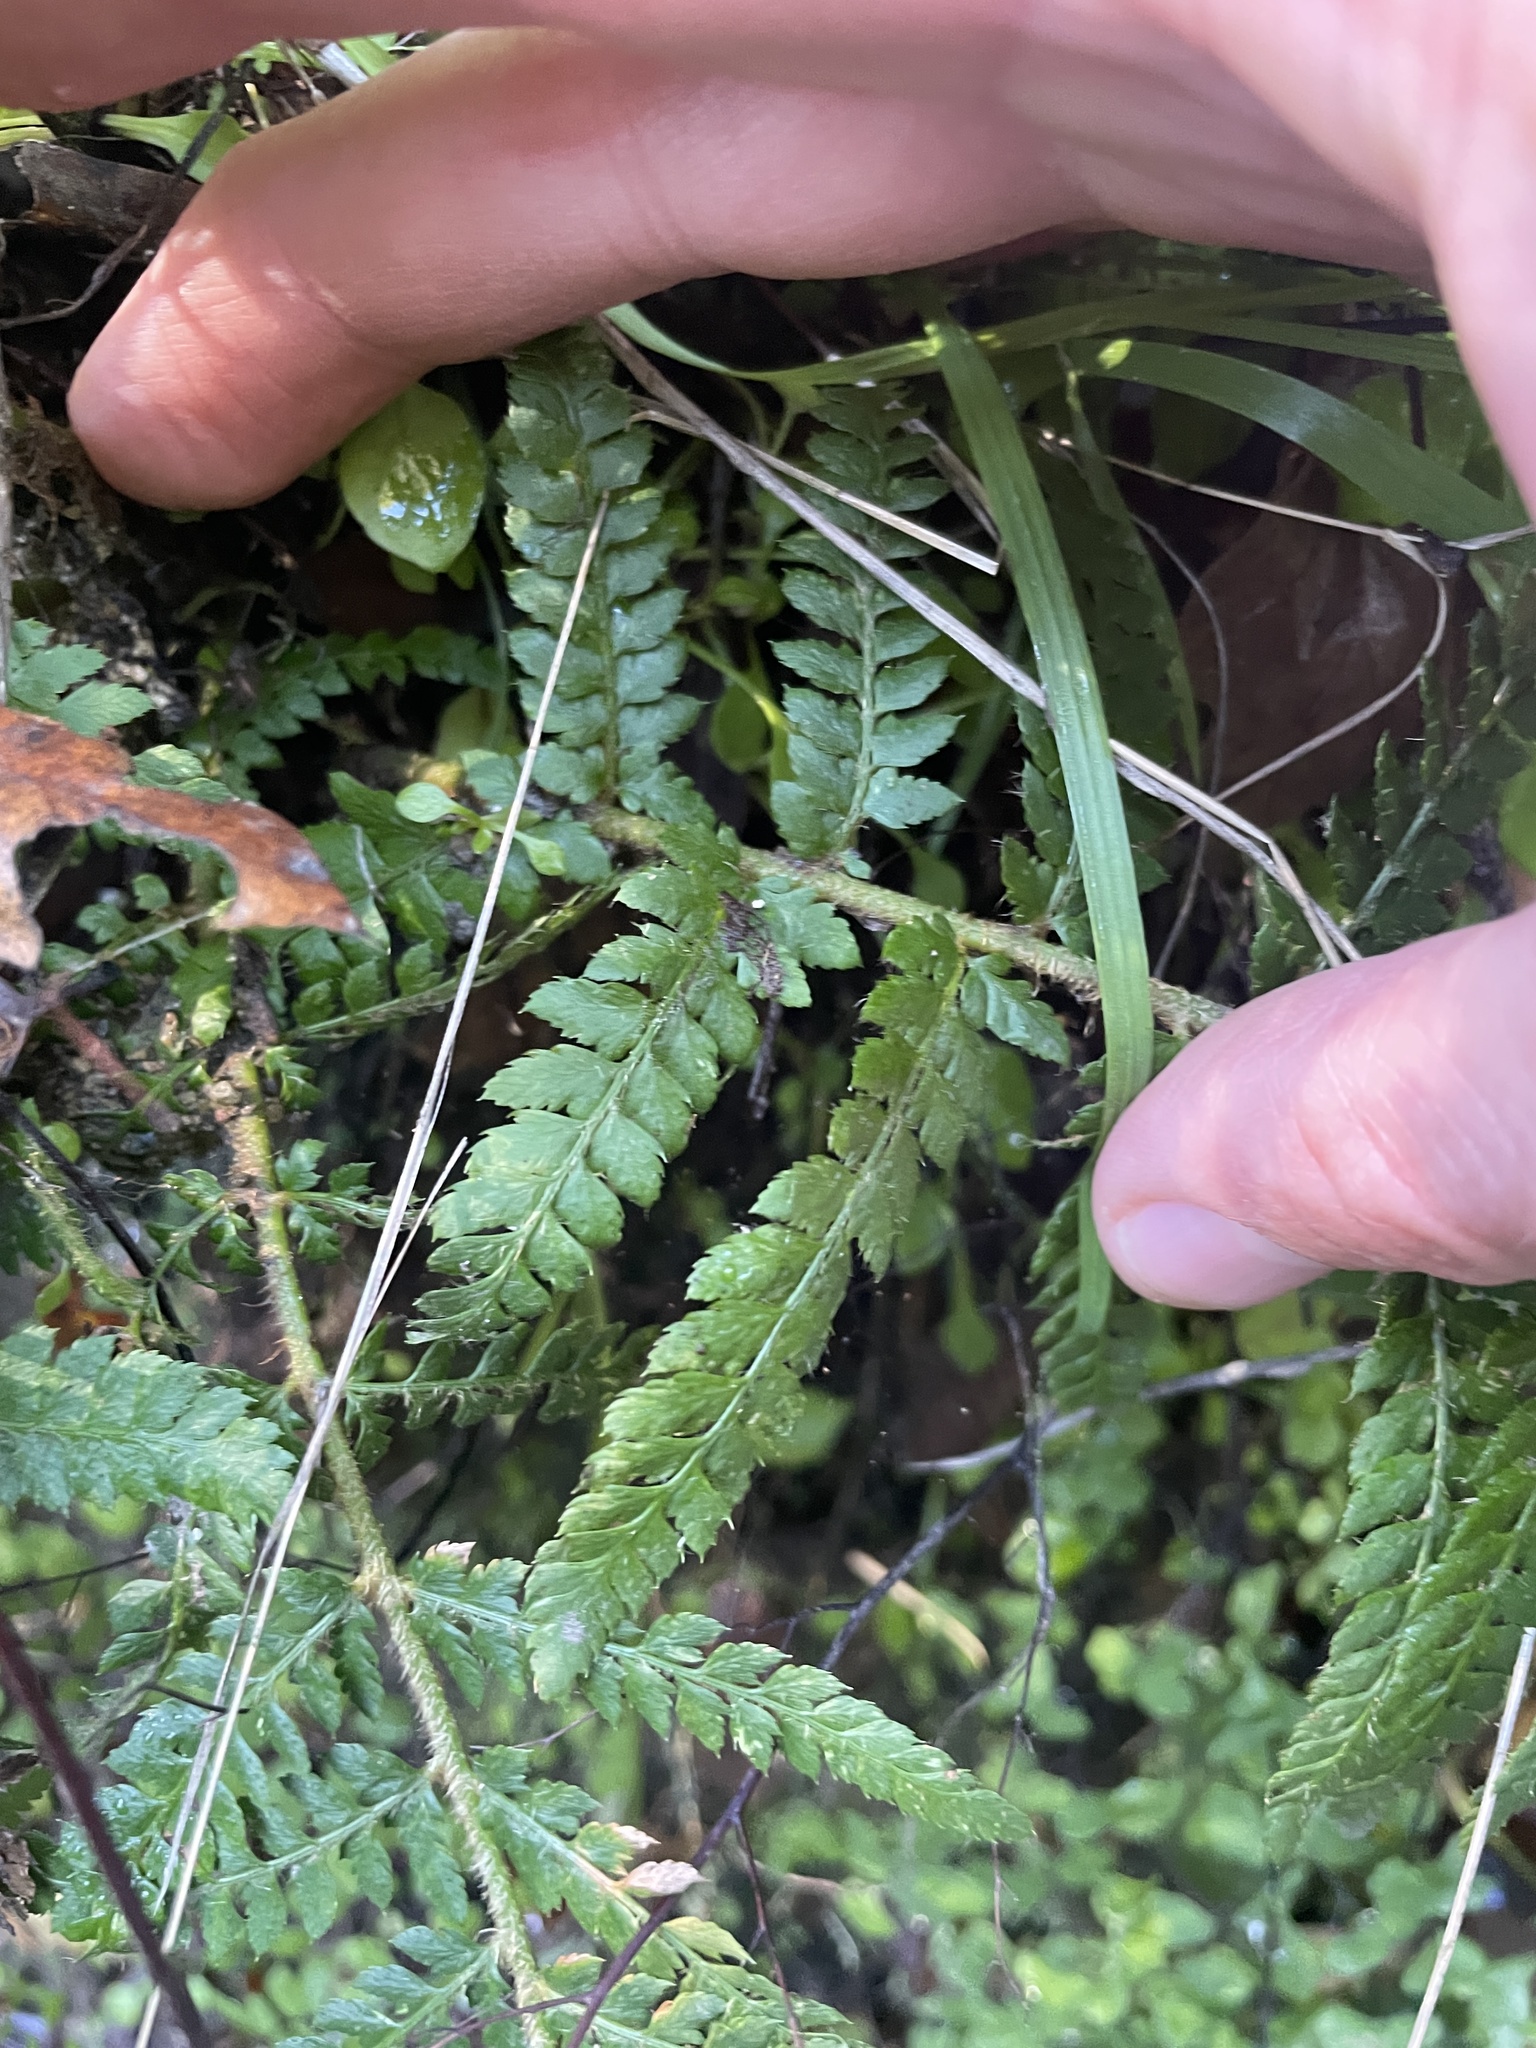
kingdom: Plantae
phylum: Tracheophyta
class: Polypodiopsida
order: Polypodiales
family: Dryopteridaceae
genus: Polystichum
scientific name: Polystichum dudleyi
